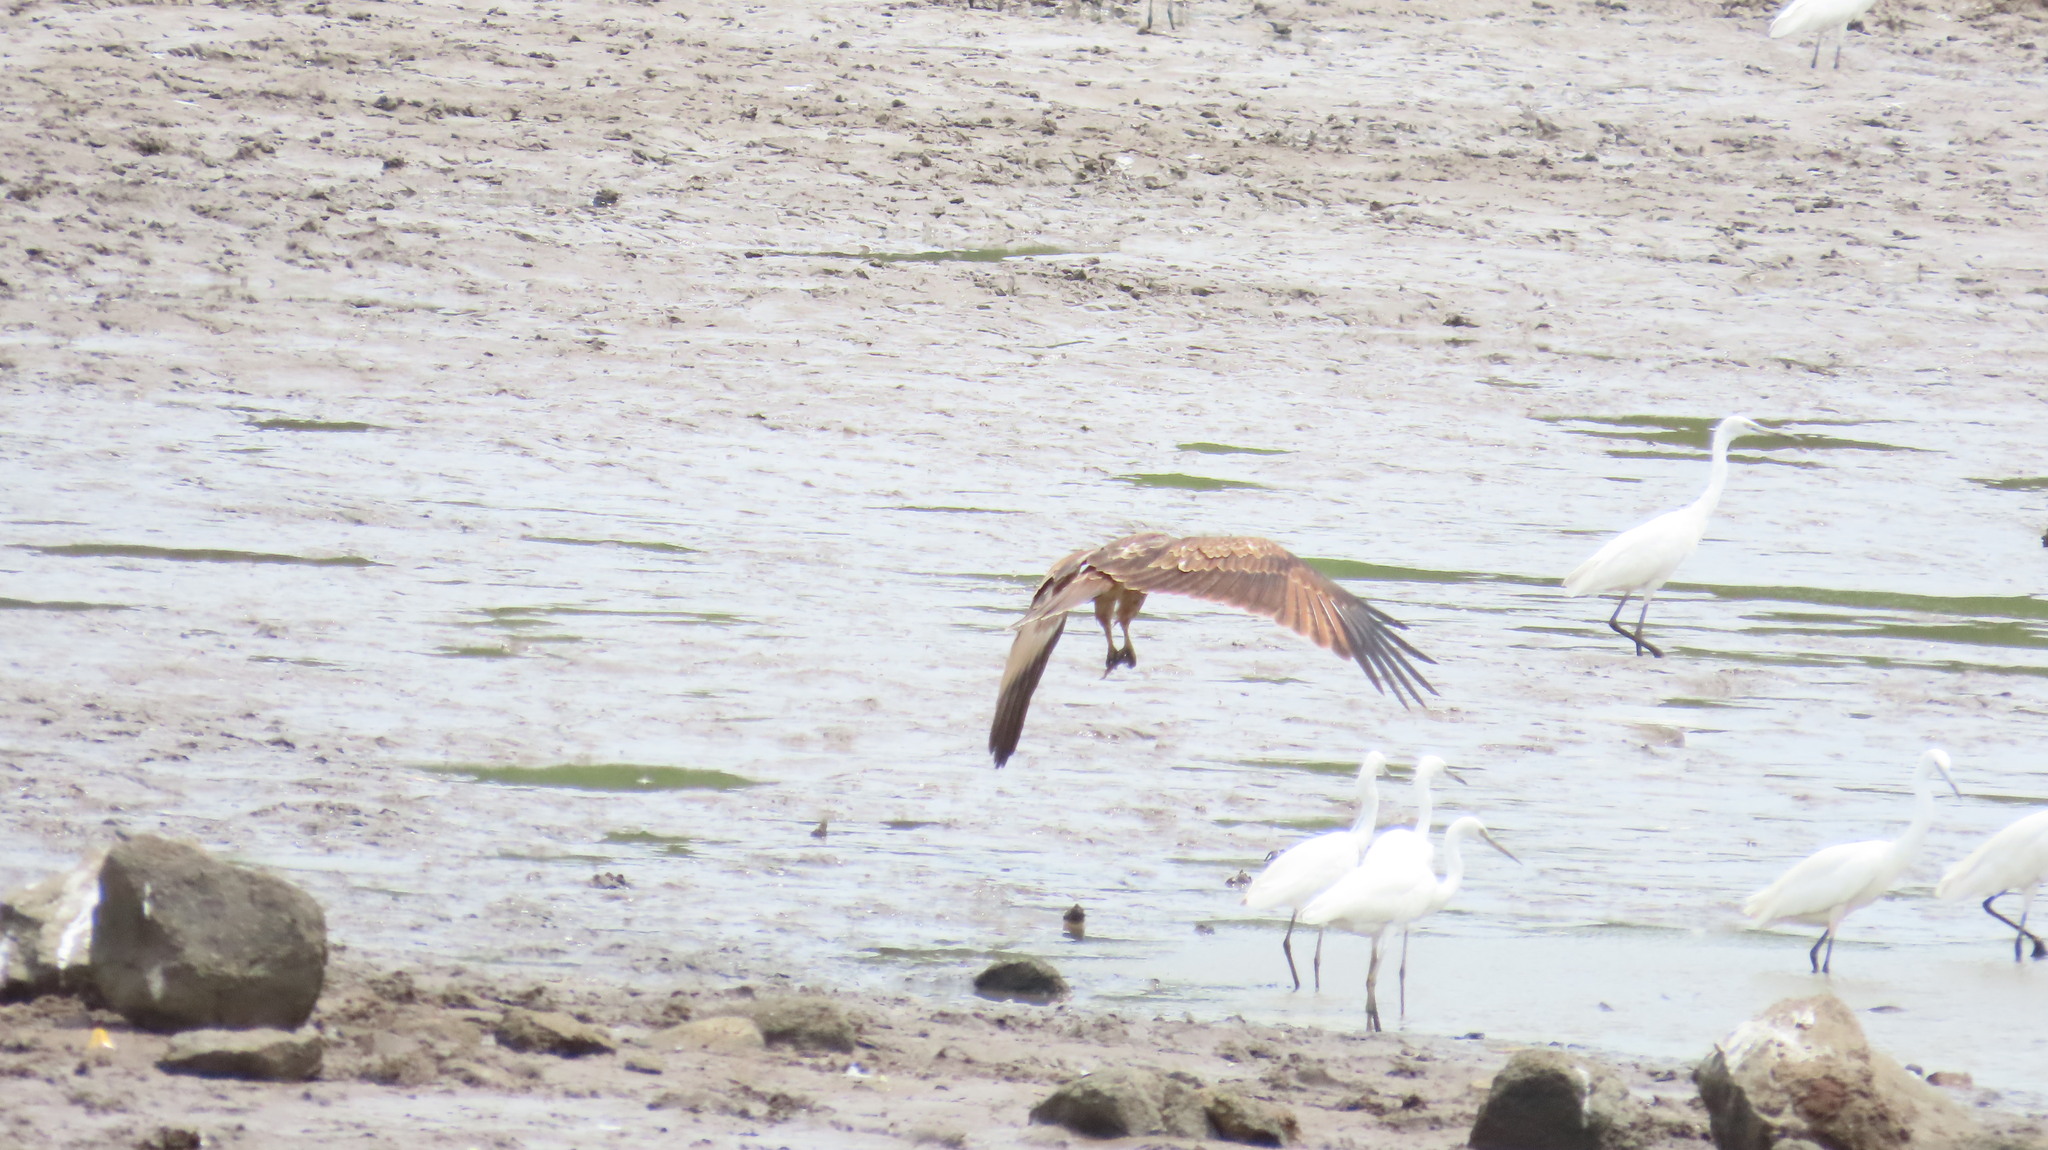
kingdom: Animalia
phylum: Chordata
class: Aves
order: Accipitriformes
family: Accipitridae
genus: Haliastur
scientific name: Haliastur indus
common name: Brahminy kite
